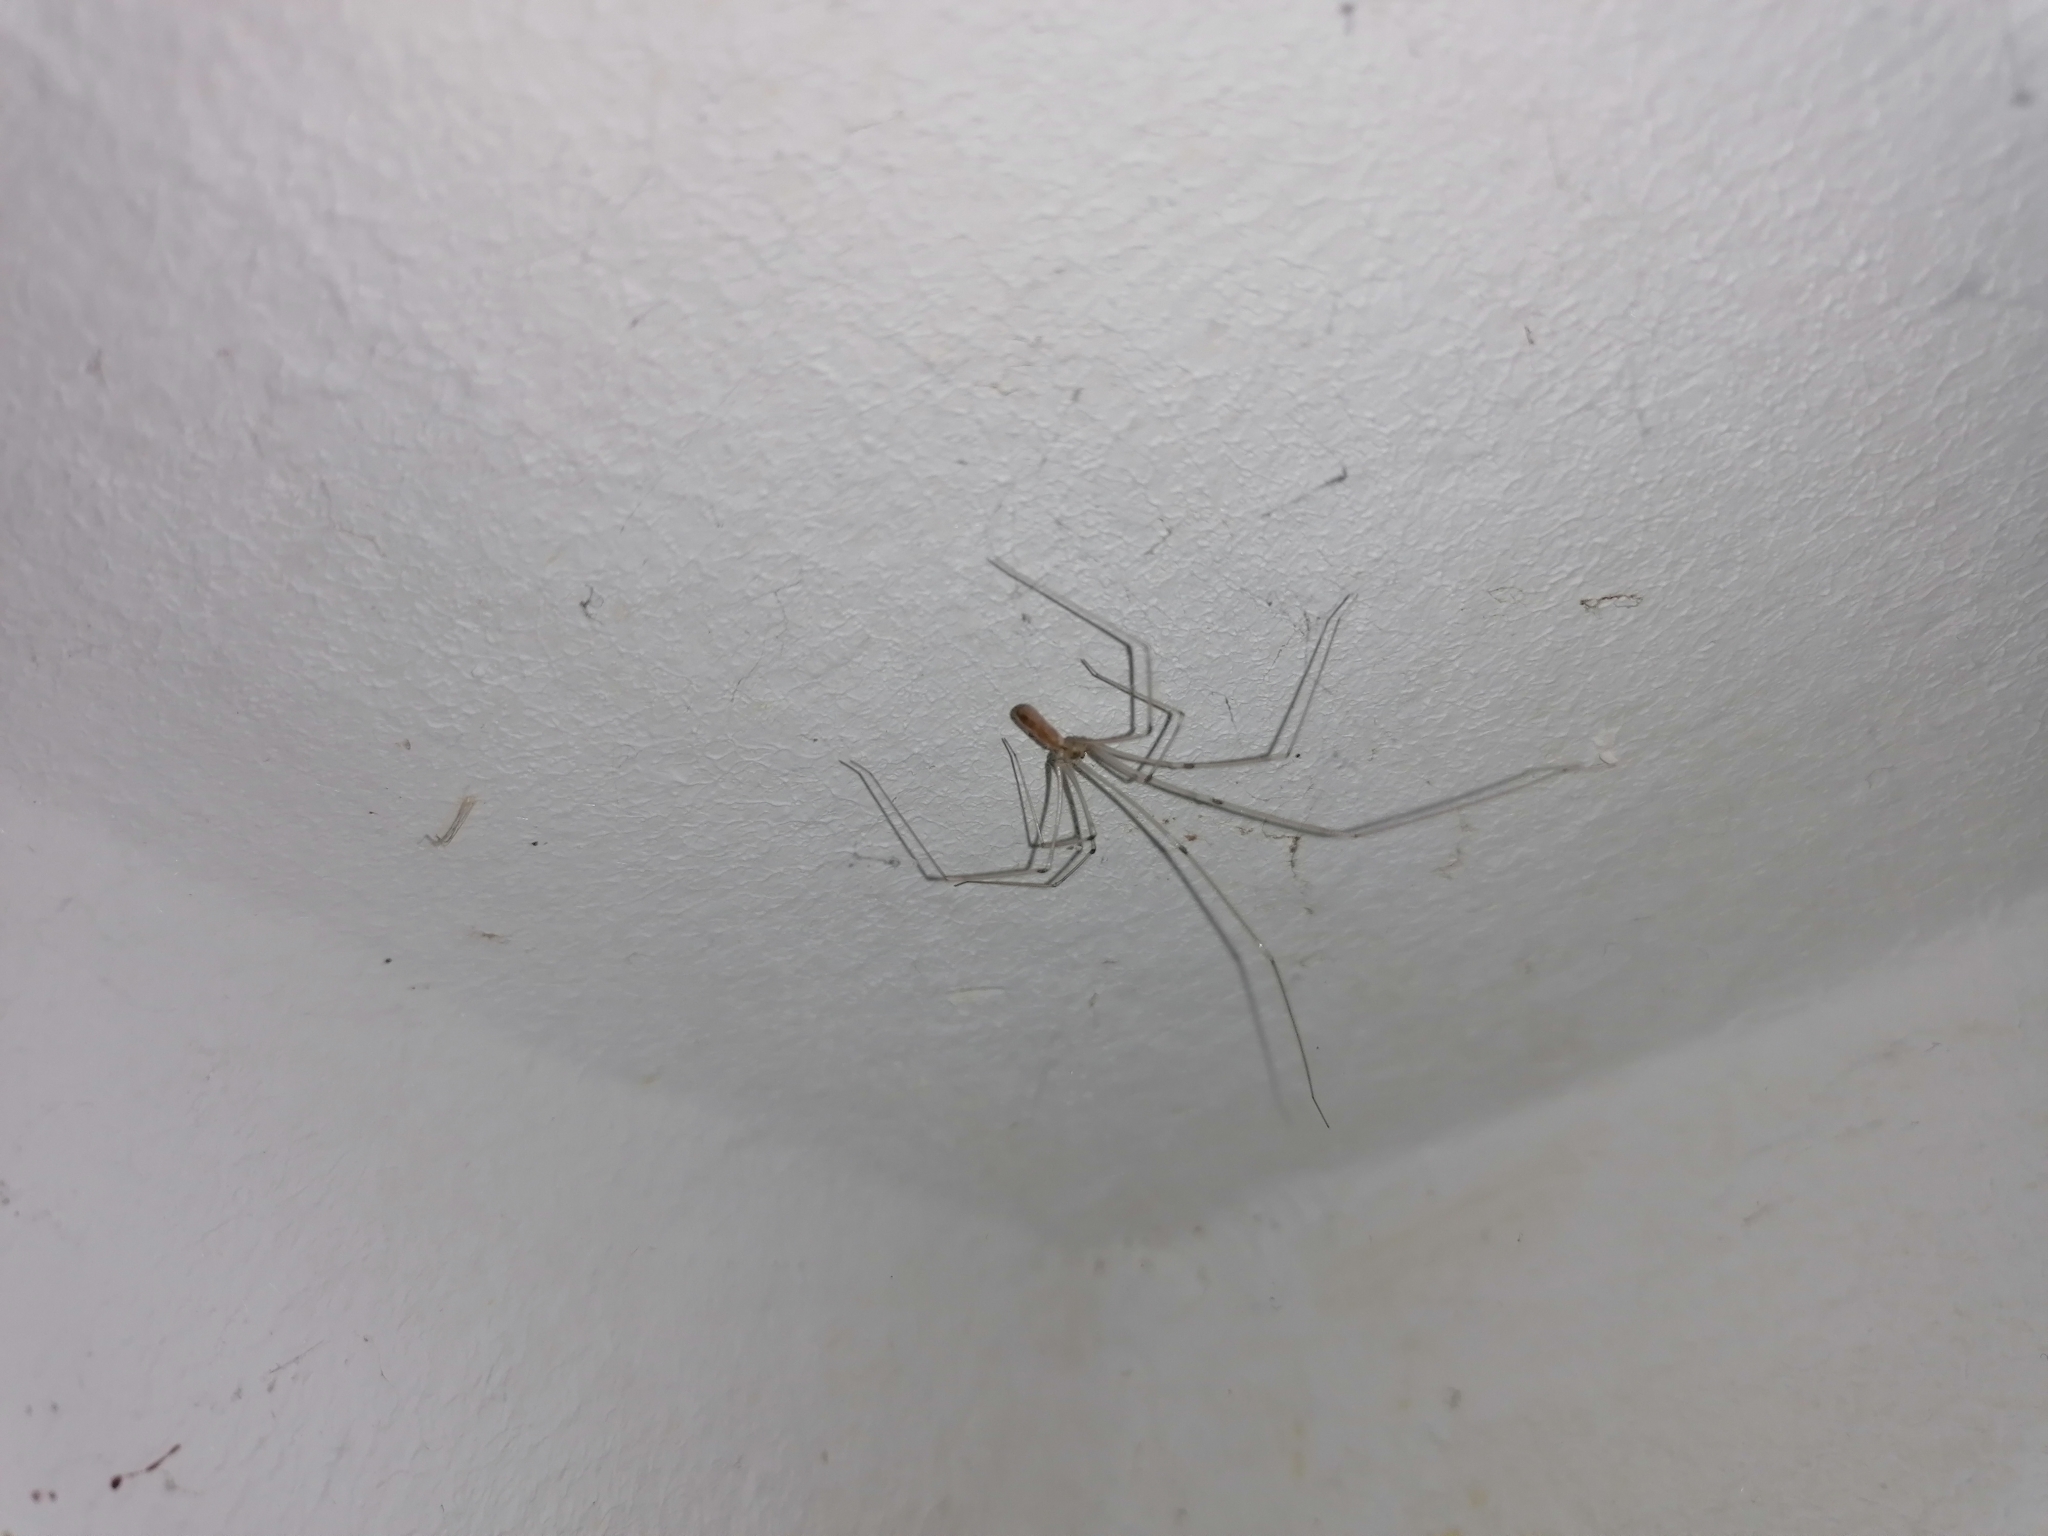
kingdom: Animalia
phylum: Arthropoda
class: Arachnida
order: Araneae
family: Pholcidae
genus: Pholcus
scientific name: Pholcus phalangioides
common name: Longbodied cellar spider
